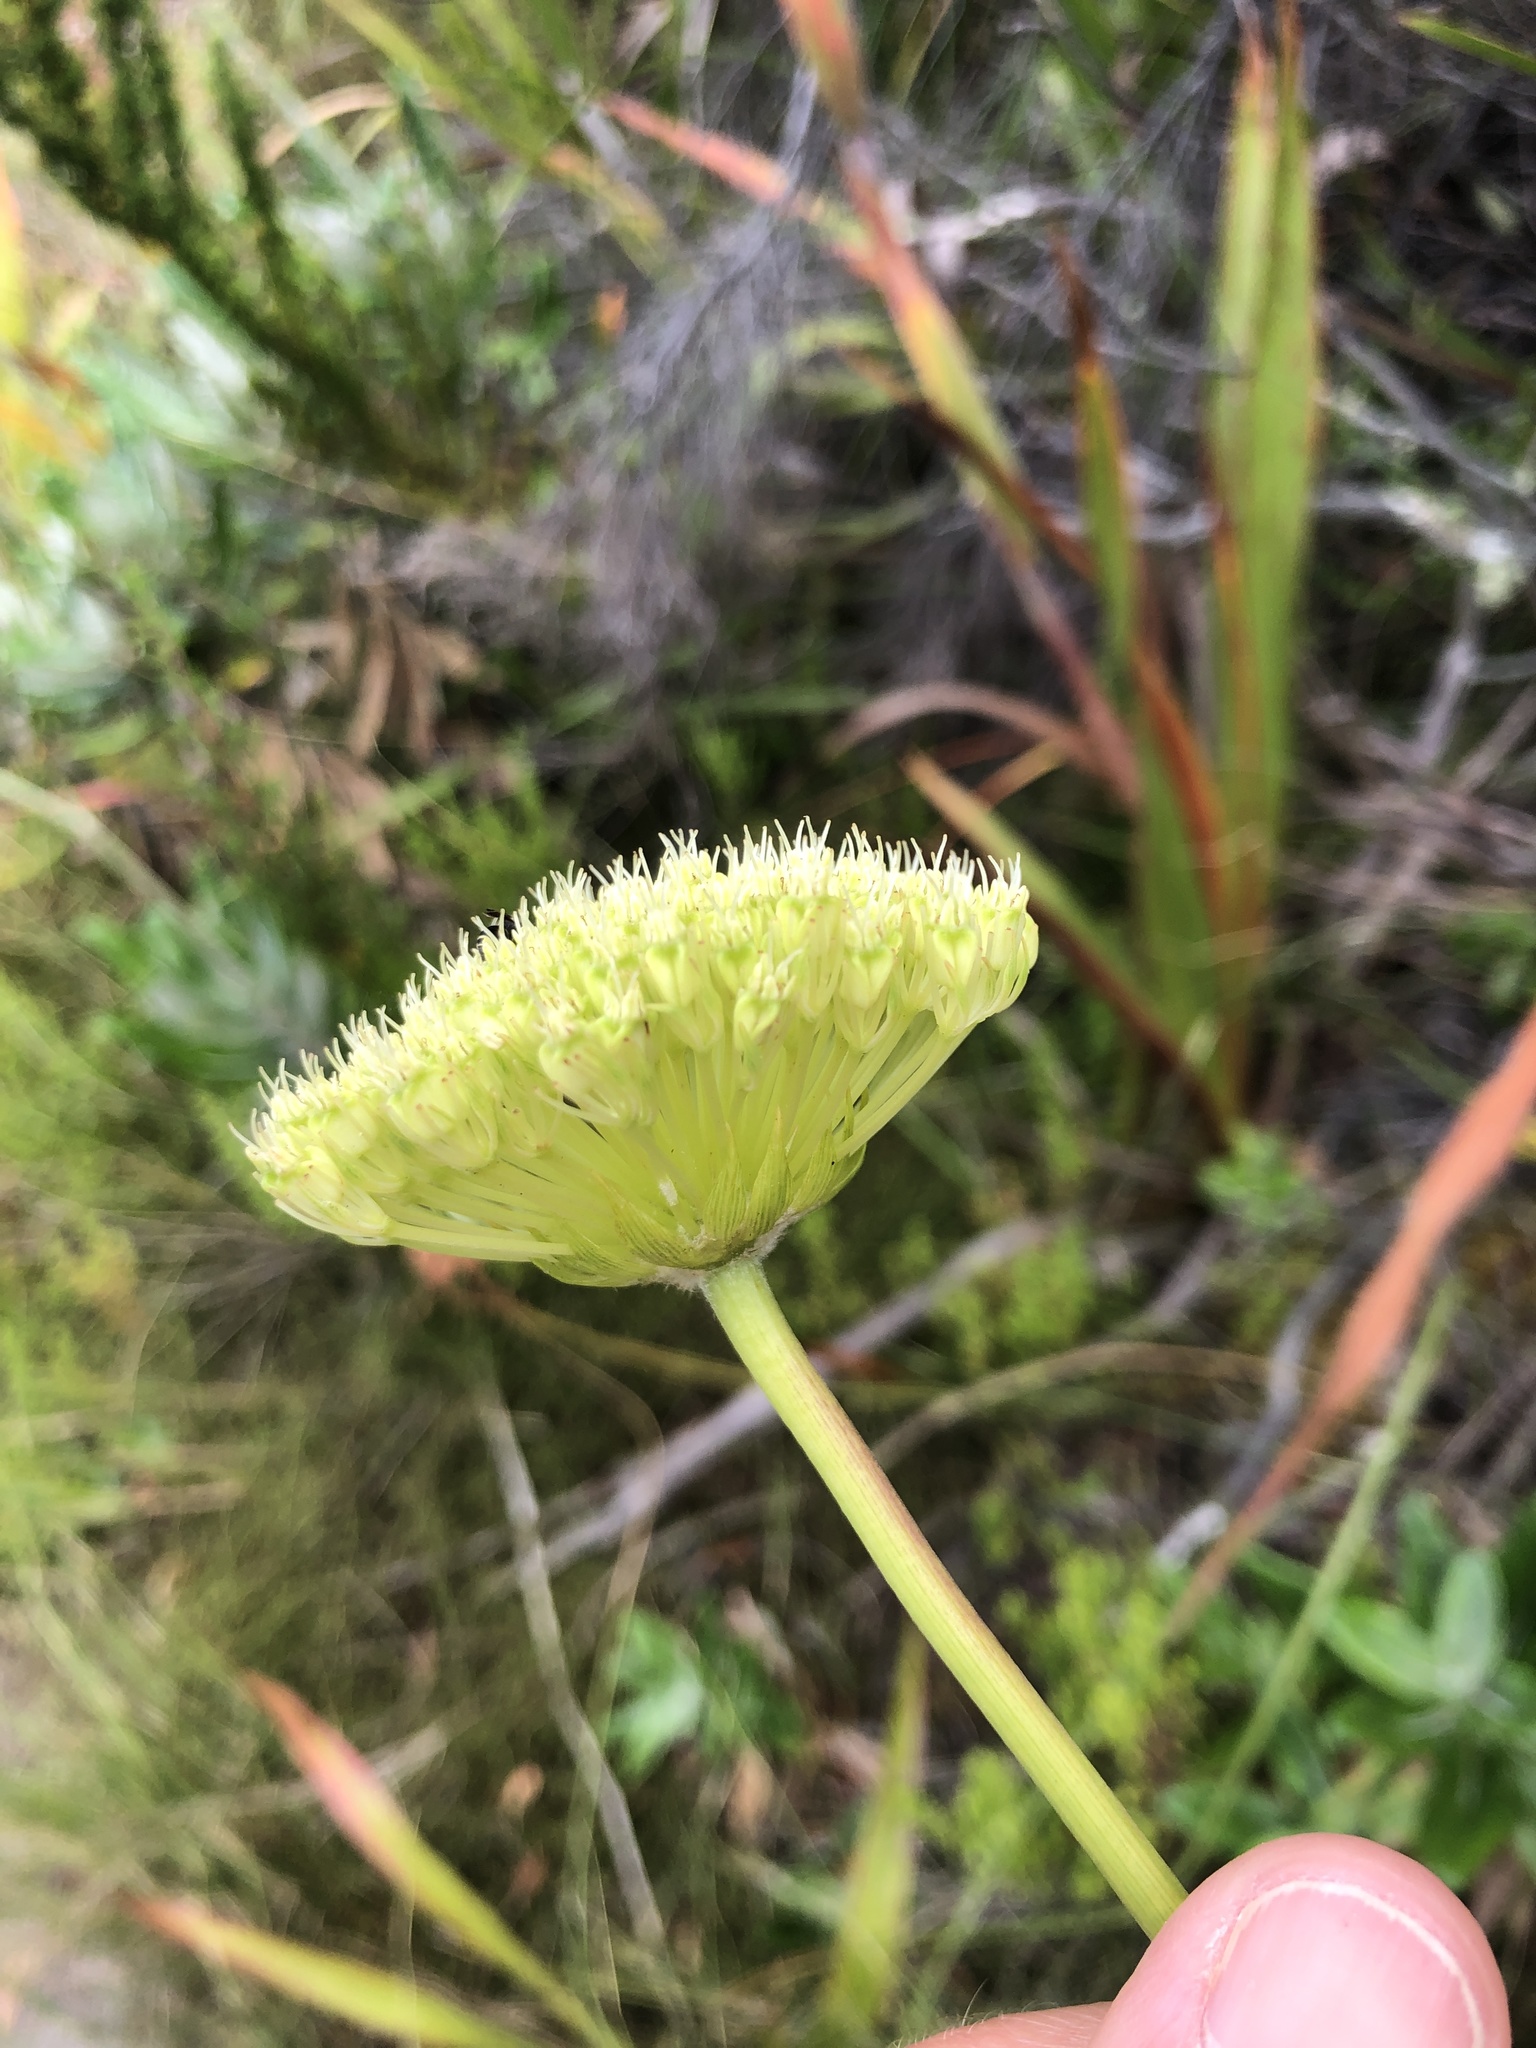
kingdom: Plantae
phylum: Tracheophyta
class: Magnoliopsida
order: Apiales
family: Apiaceae
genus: Hermas
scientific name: Hermas villosa
